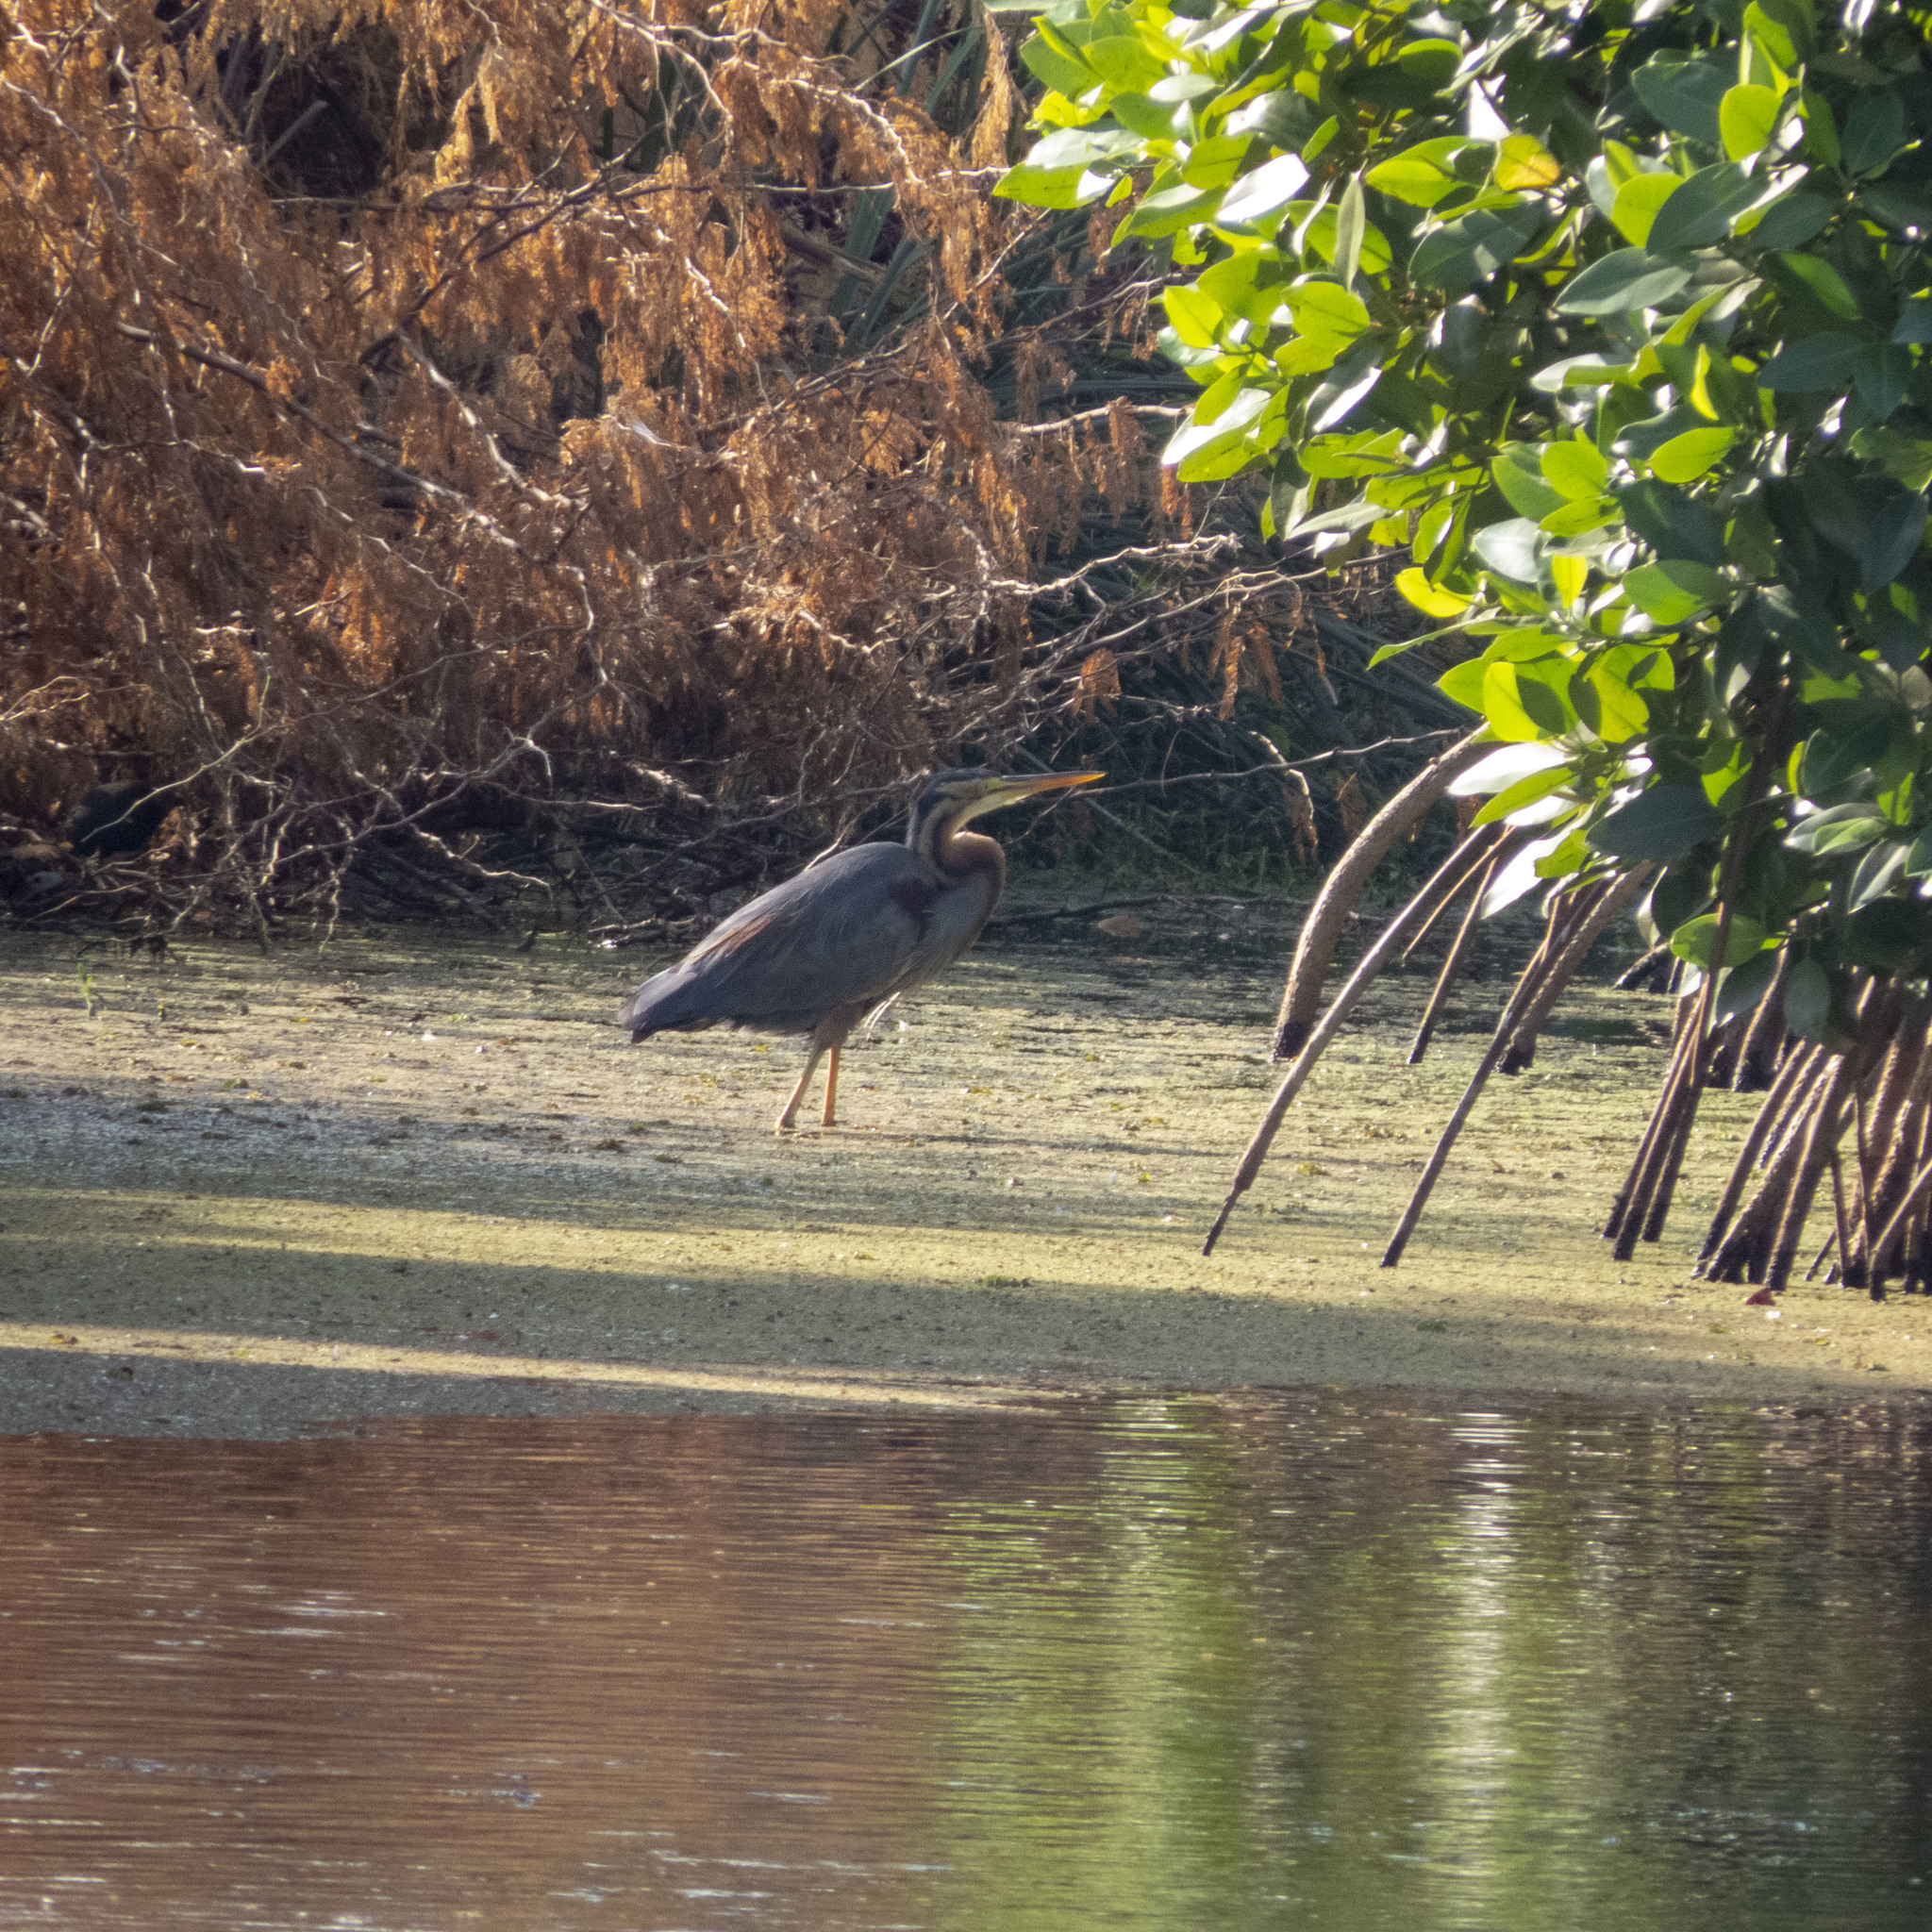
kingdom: Animalia
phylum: Chordata
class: Aves
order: Pelecaniformes
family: Ardeidae
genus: Ardea
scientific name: Ardea purpurea
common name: Purple heron
